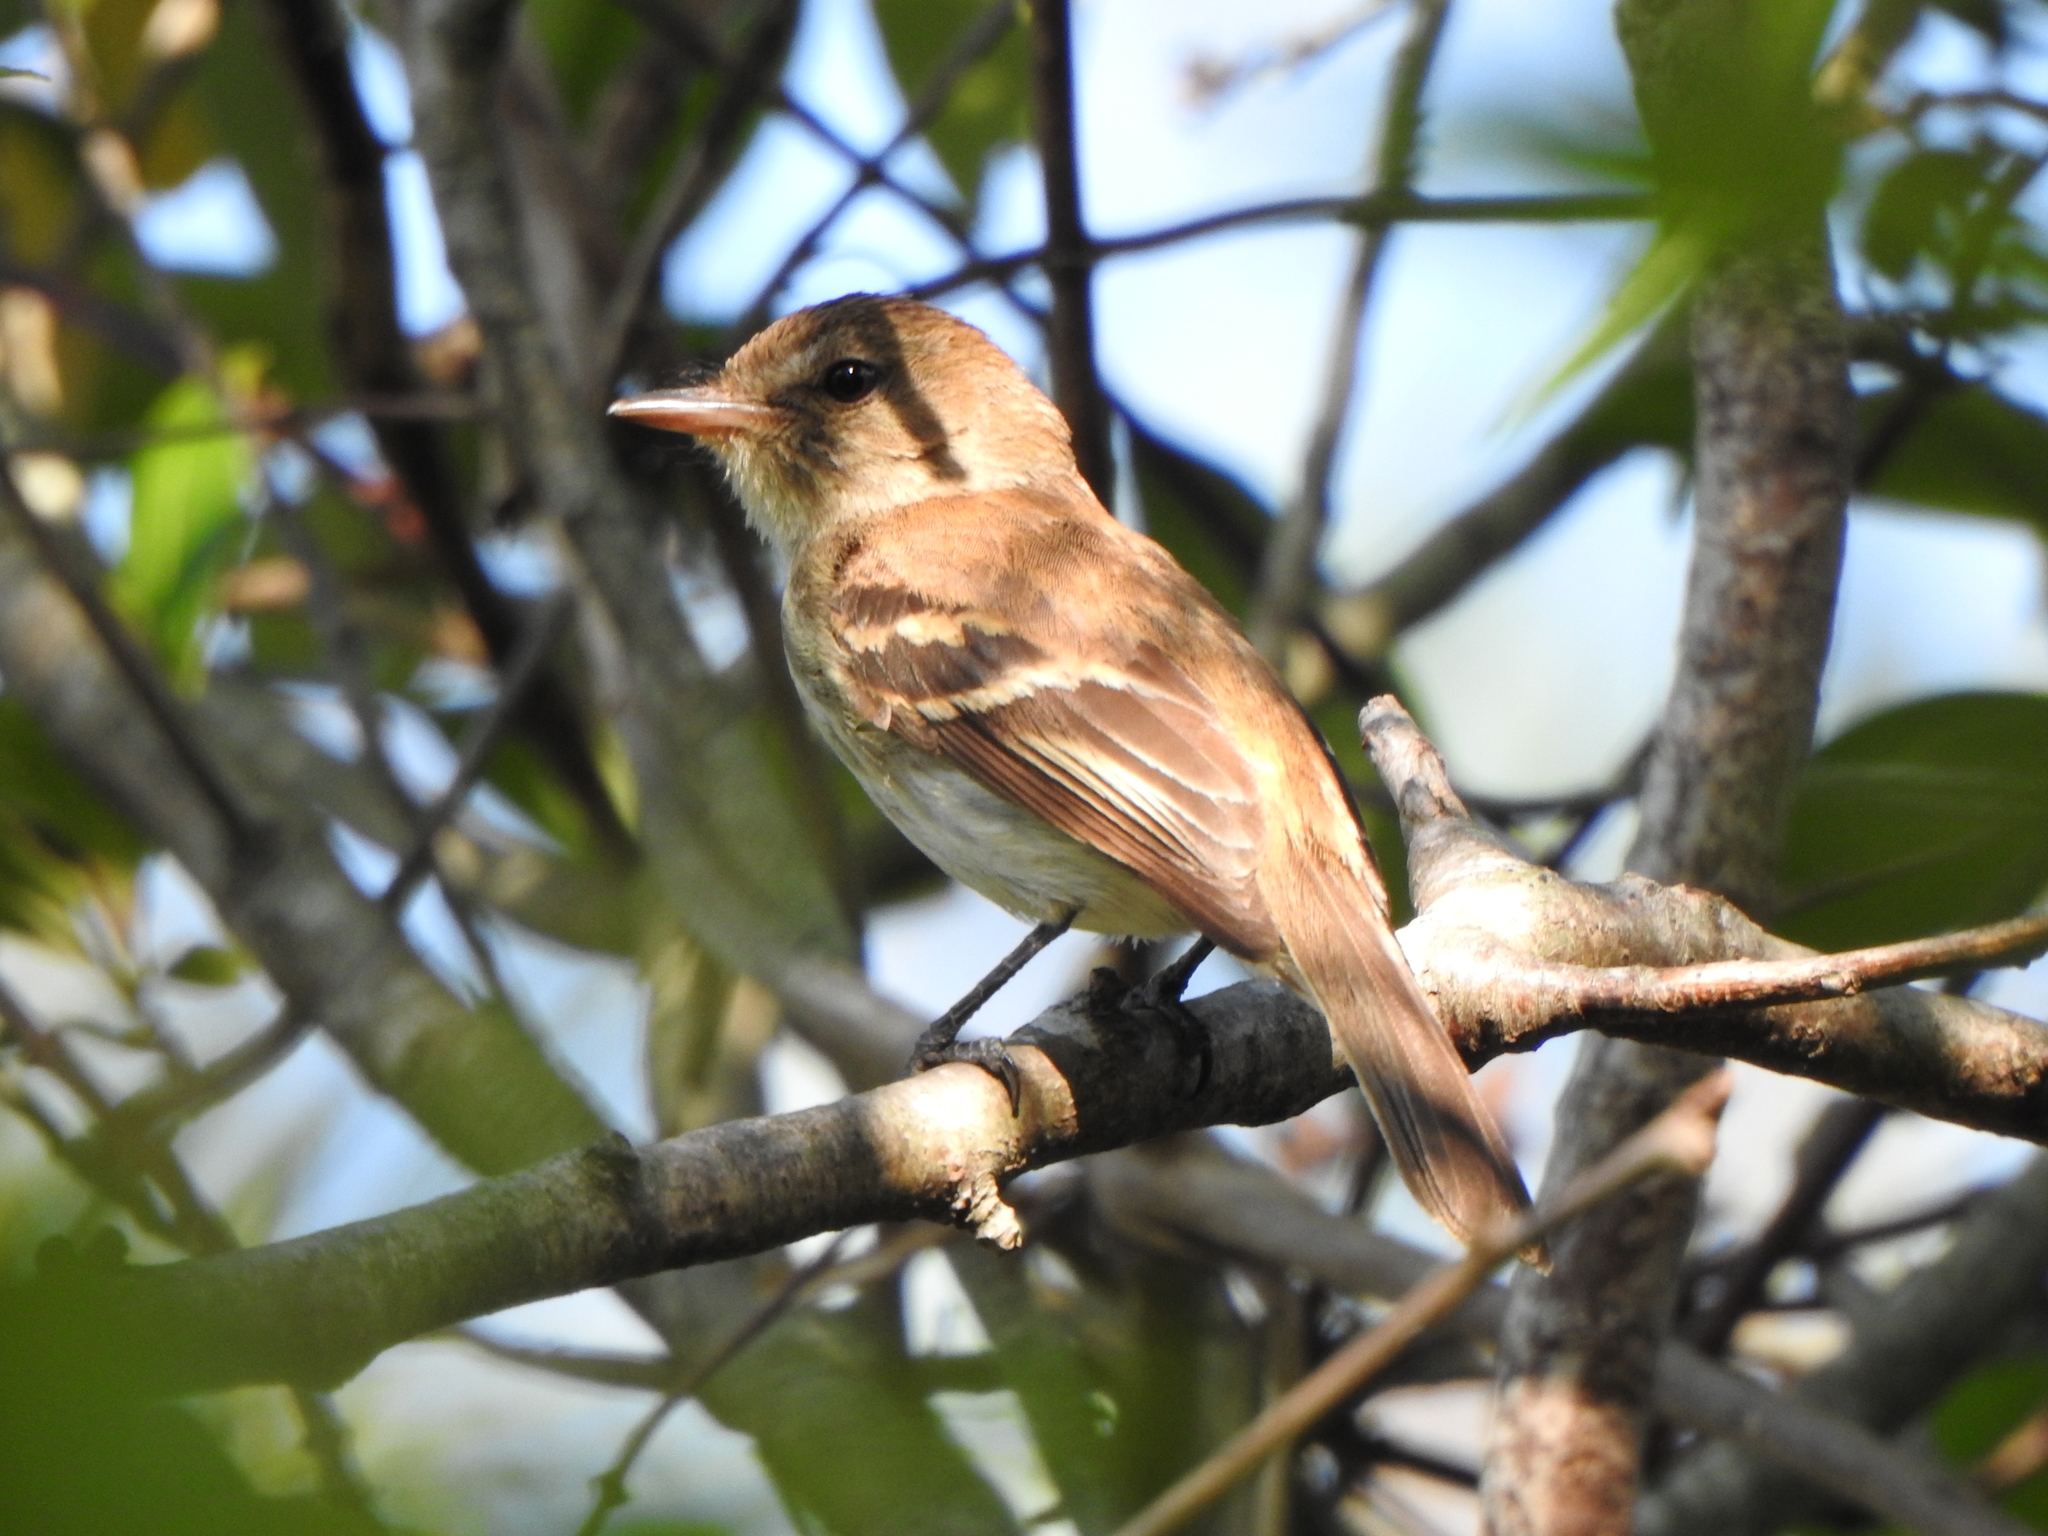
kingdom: Animalia
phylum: Chordata
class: Aves
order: Passeriformes
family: Tyrannidae
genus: Myiophobus
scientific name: Myiophobus fasciatus
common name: Bran-colored flycatcher
